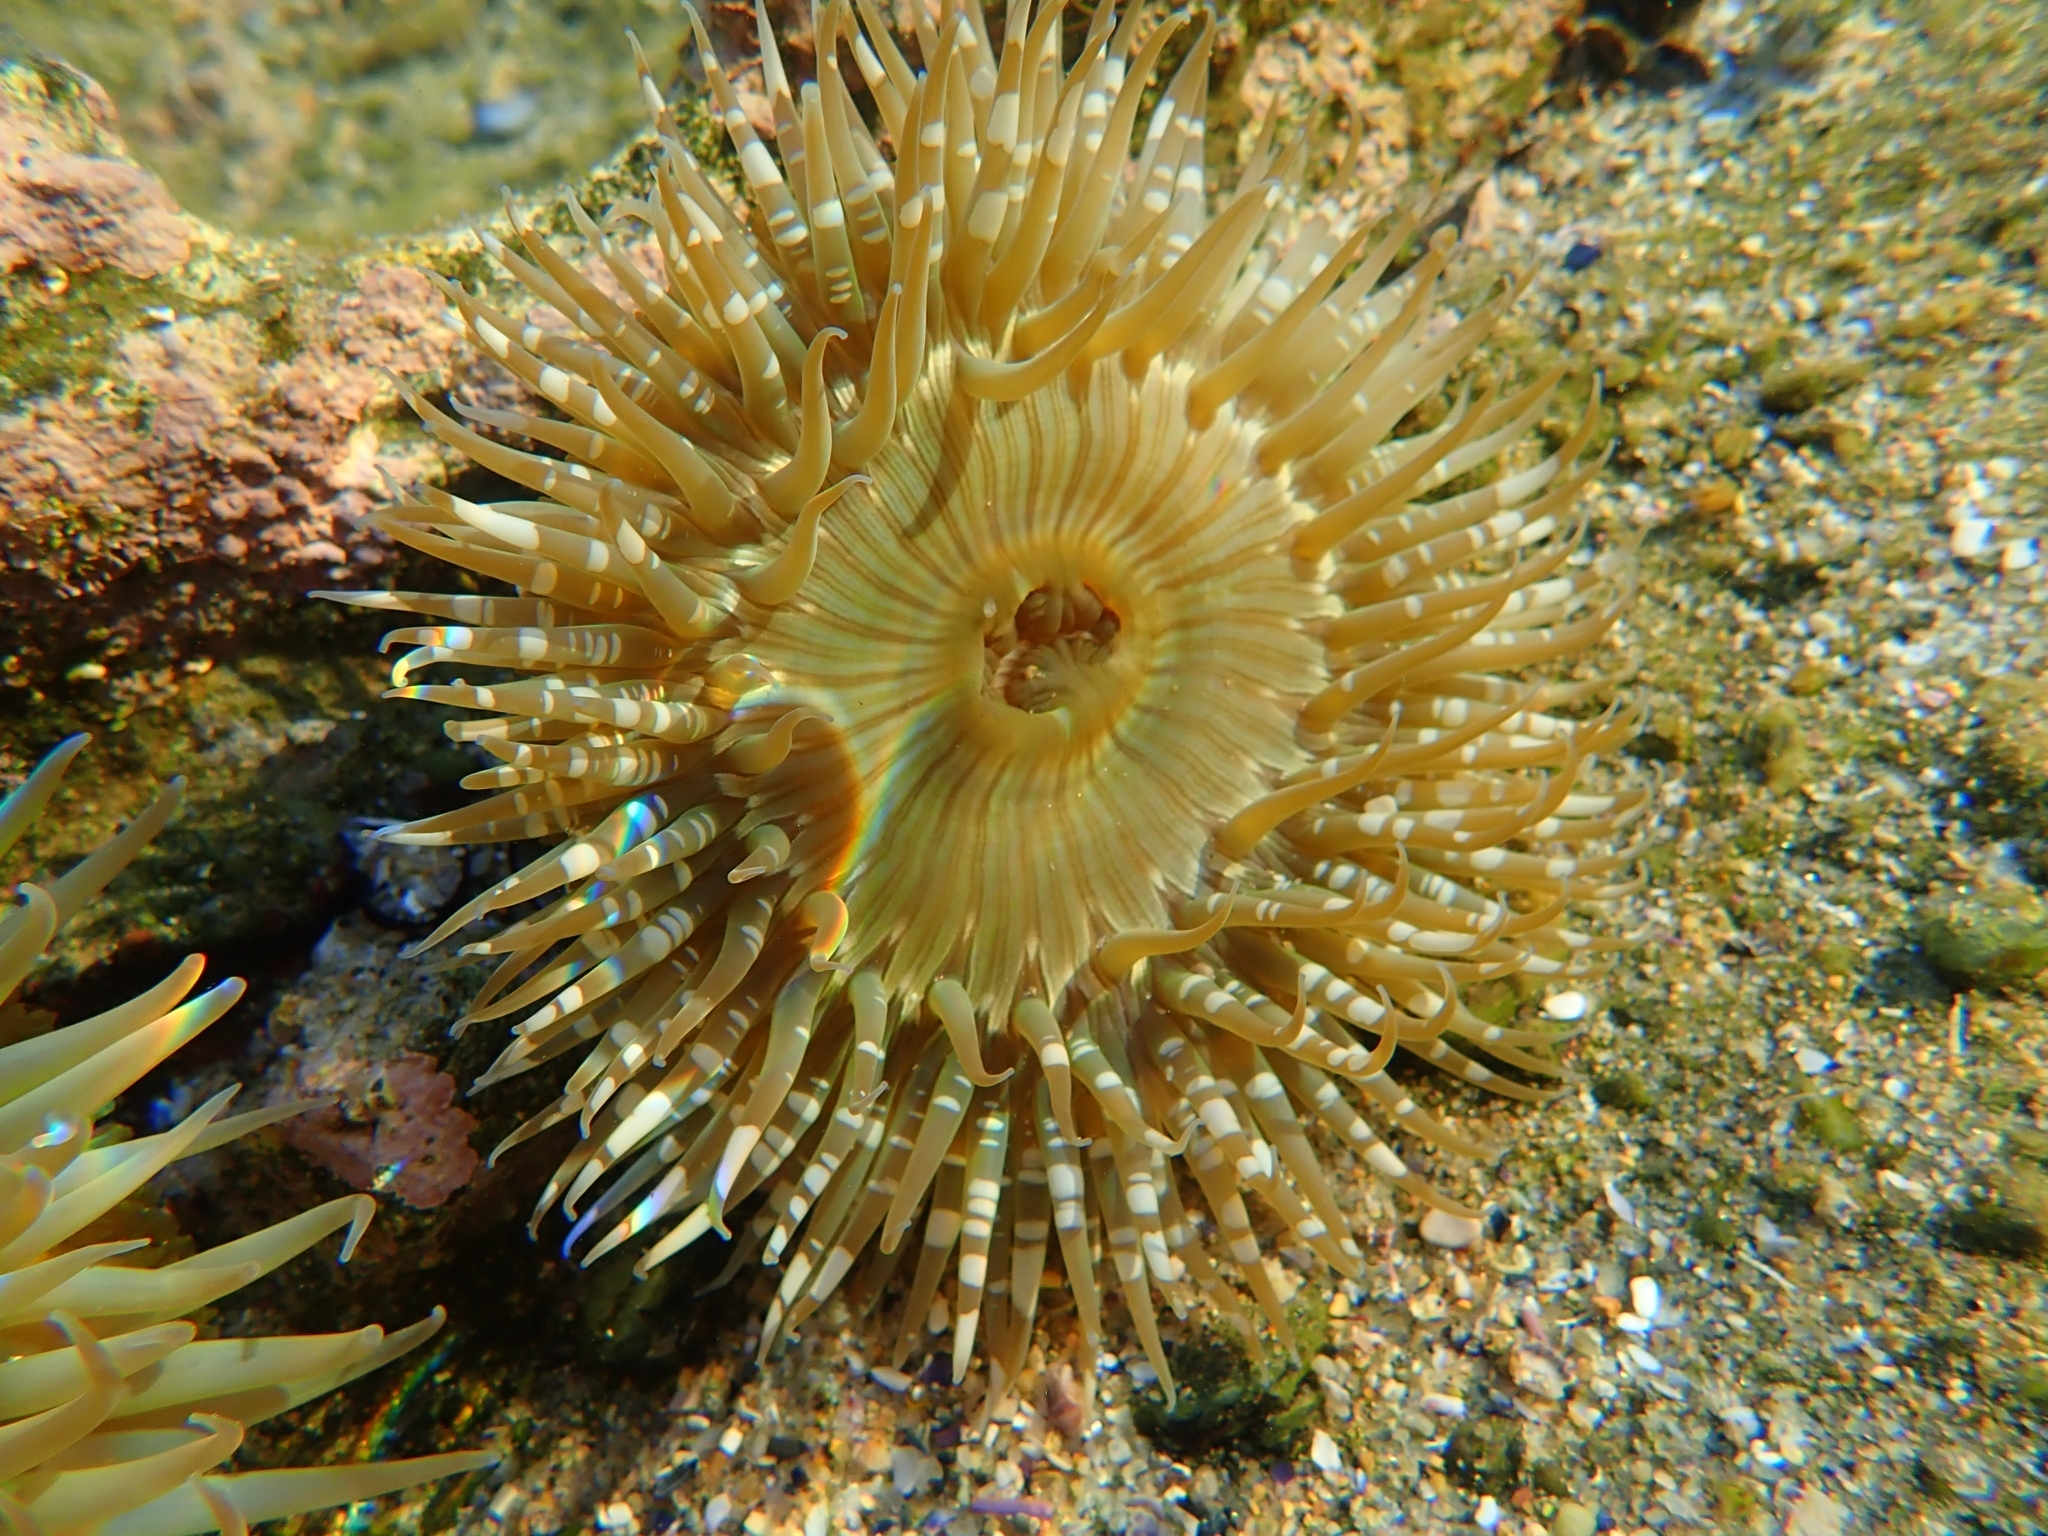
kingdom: Animalia
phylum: Cnidaria
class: Anthozoa
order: Actiniaria
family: Actiniidae
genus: Anthopleura
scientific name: Anthopleura sola
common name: Sun anemone
